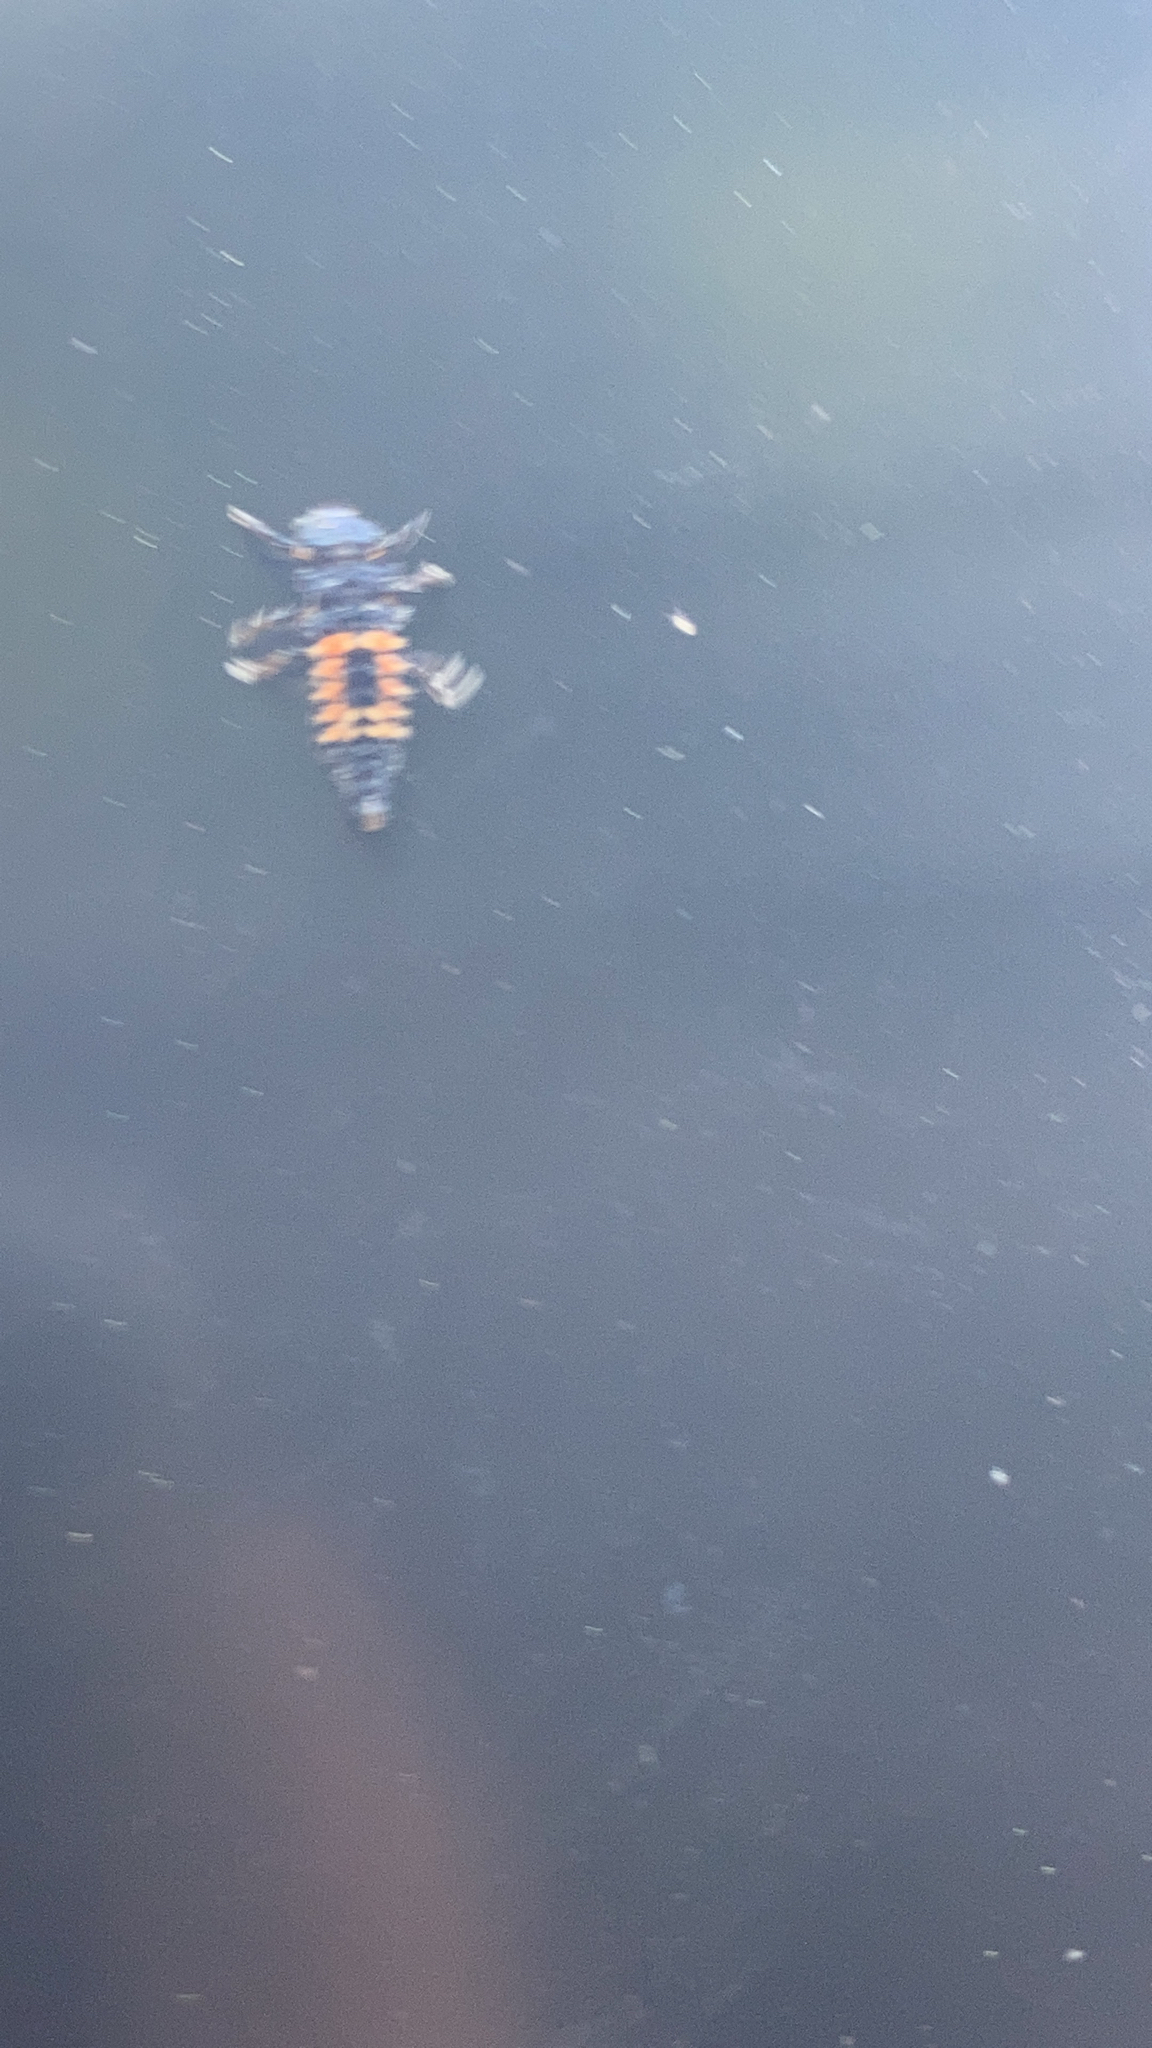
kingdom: Animalia
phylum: Arthropoda
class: Insecta
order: Coleoptera
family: Coccinellidae
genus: Harmonia
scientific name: Harmonia axyridis
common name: Harlequin ladybird
